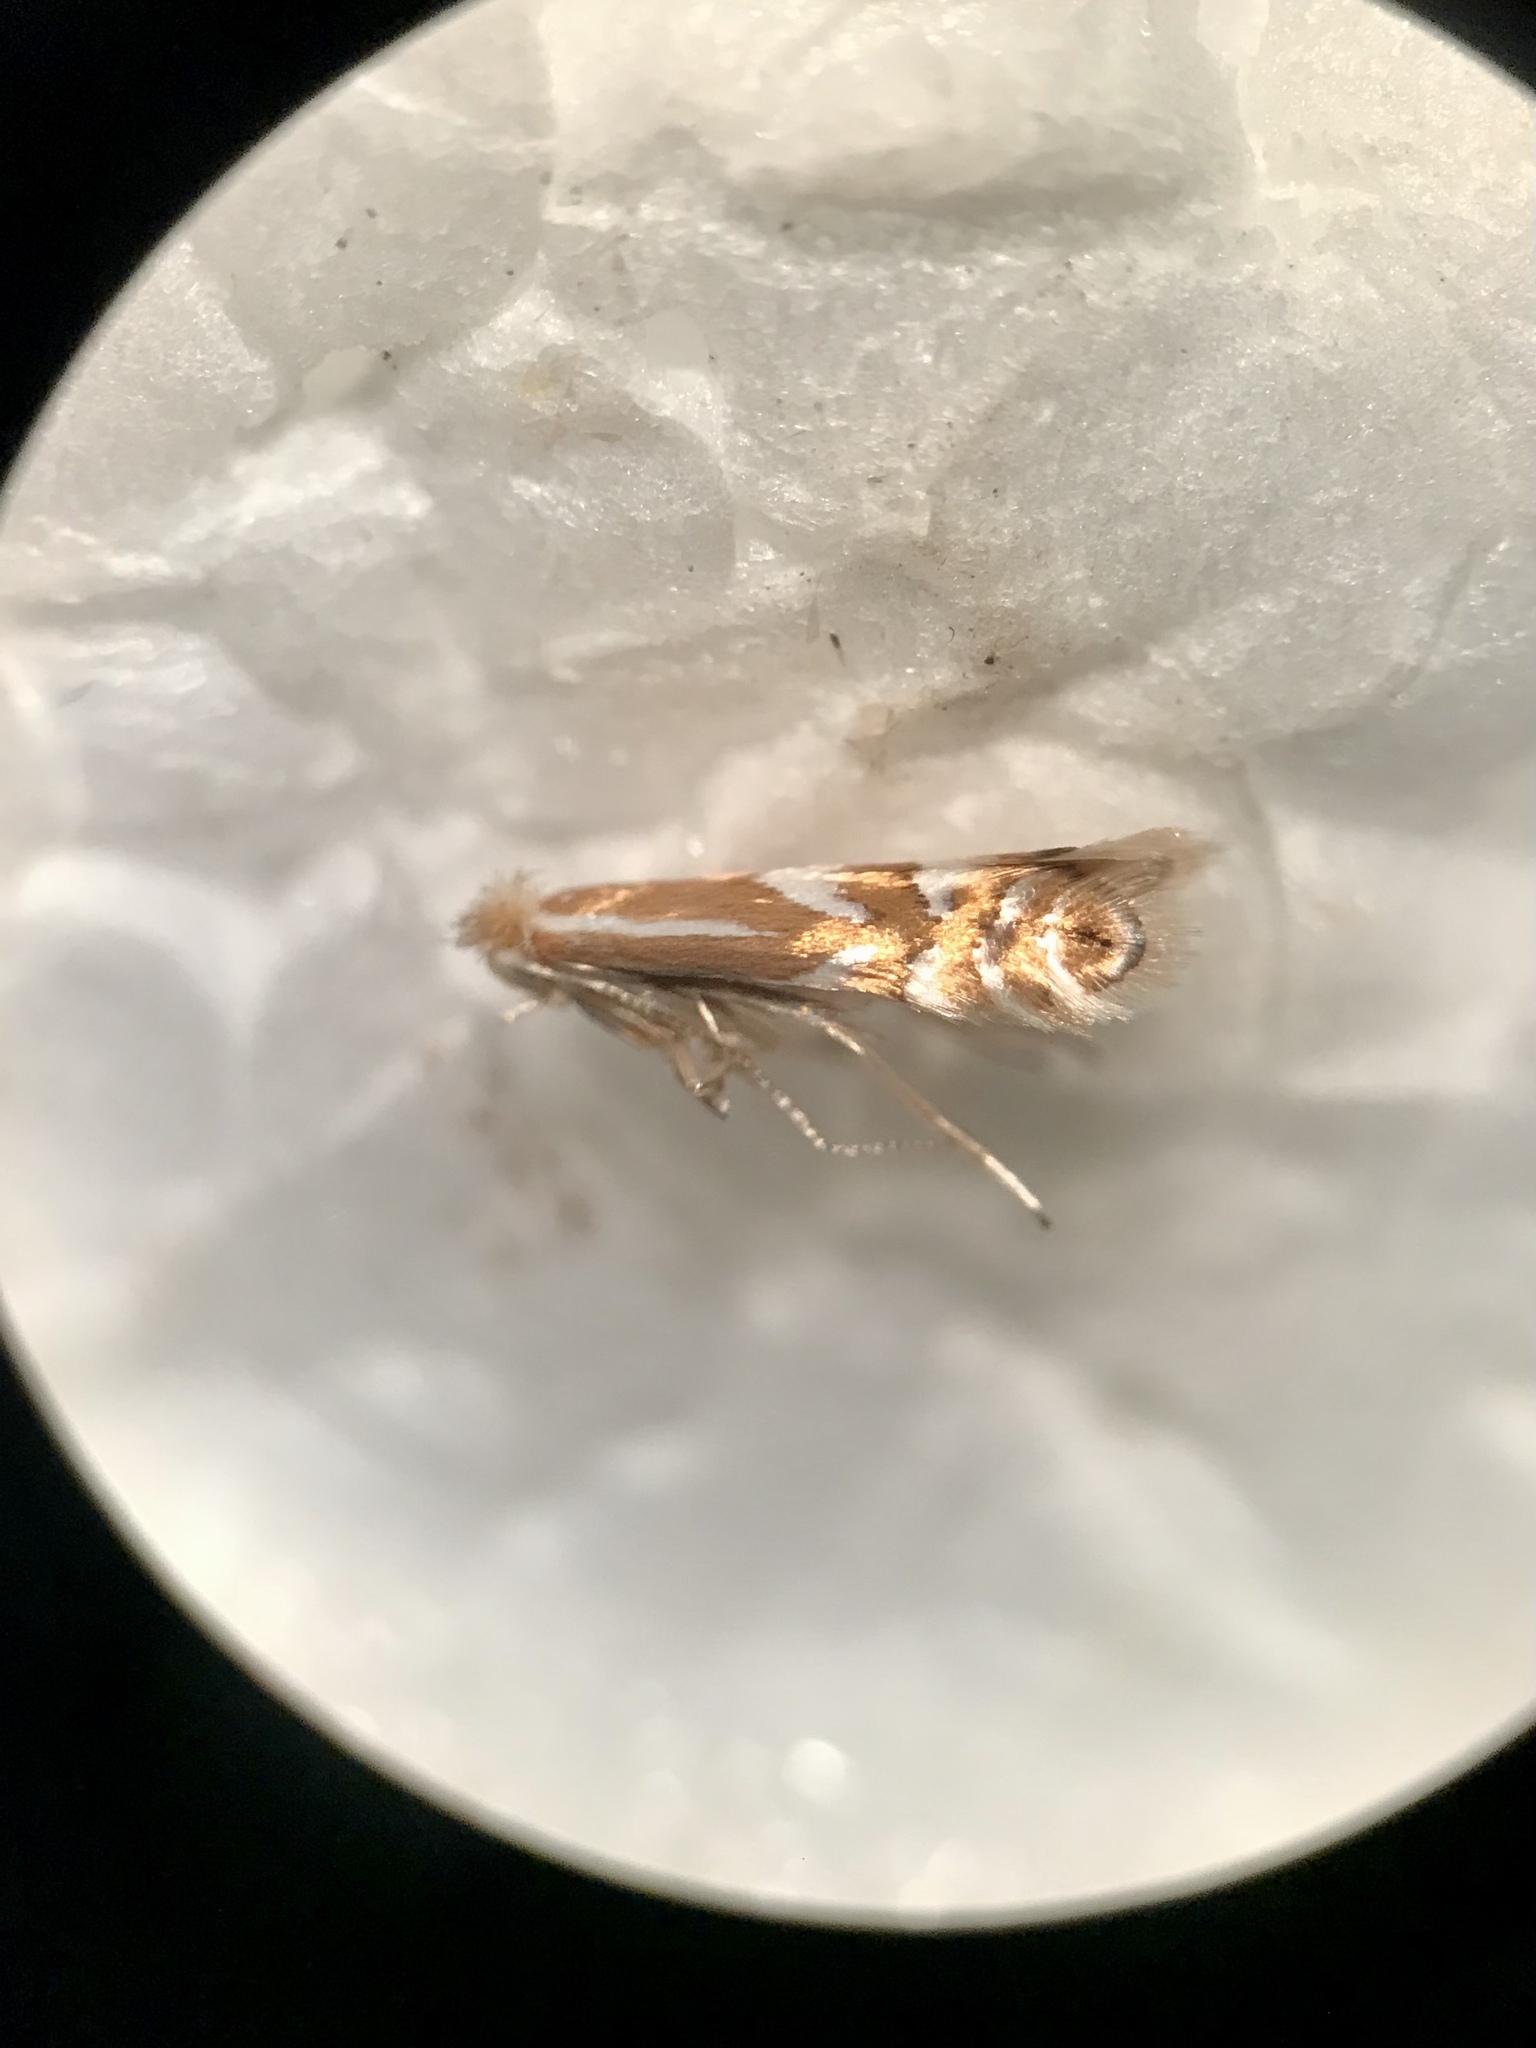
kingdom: Animalia
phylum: Arthropoda
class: Insecta
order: Lepidoptera
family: Gracillariidae
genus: Phyllonorycter
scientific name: Phyllonorycter ledella
